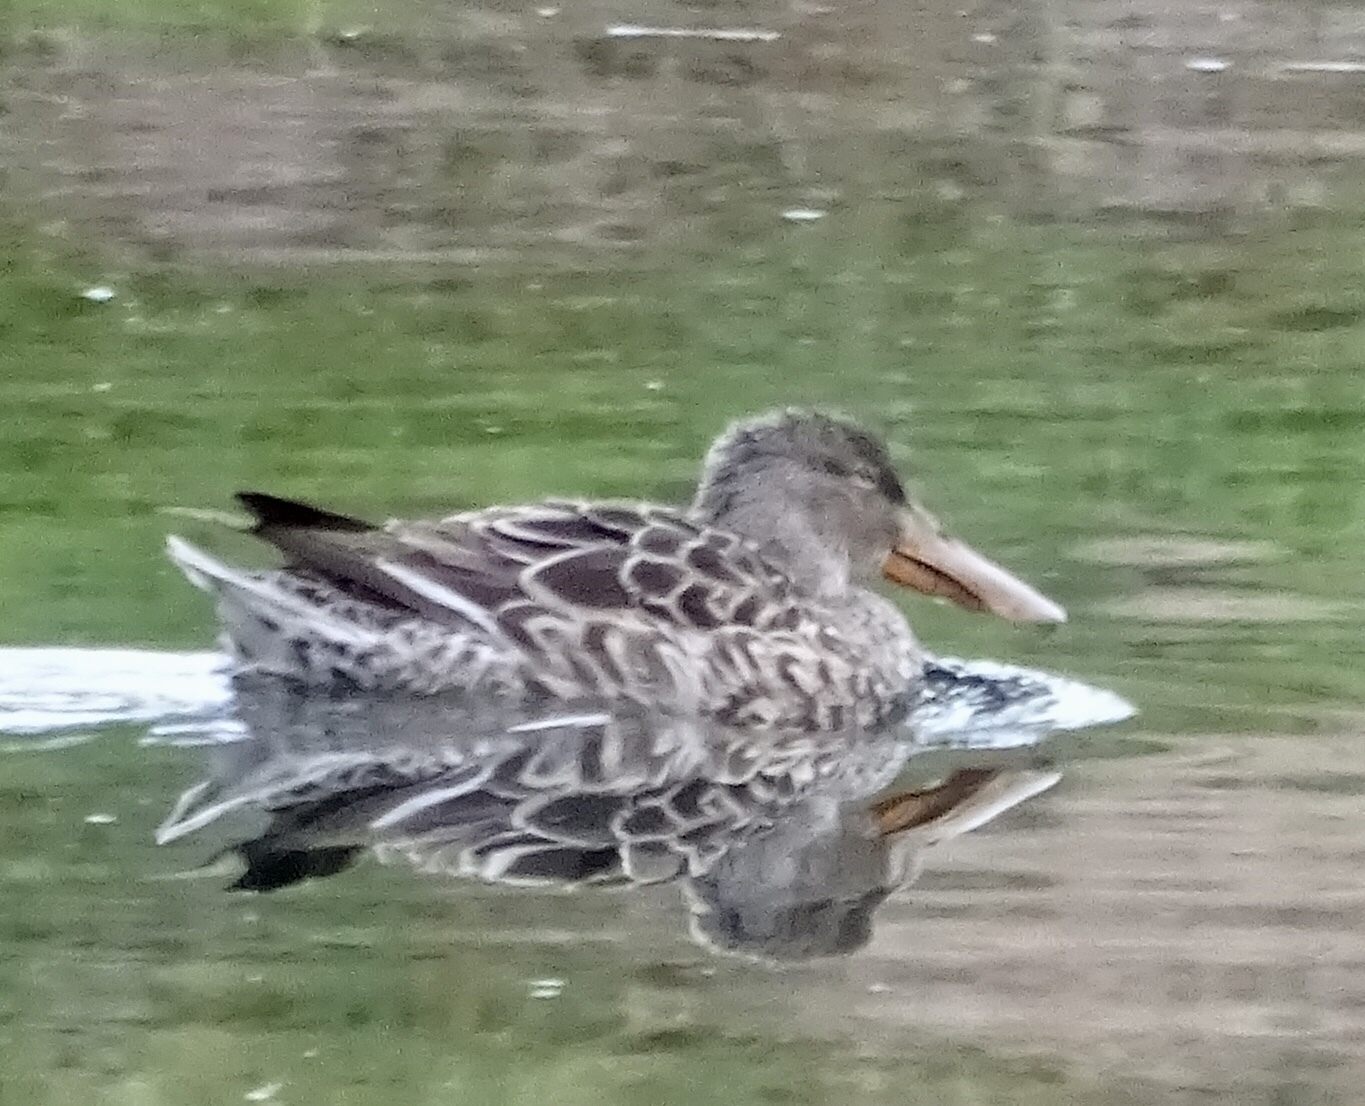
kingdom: Animalia
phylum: Chordata
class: Aves
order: Anseriformes
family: Anatidae
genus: Spatula
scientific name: Spatula clypeata
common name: Northern shoveler
